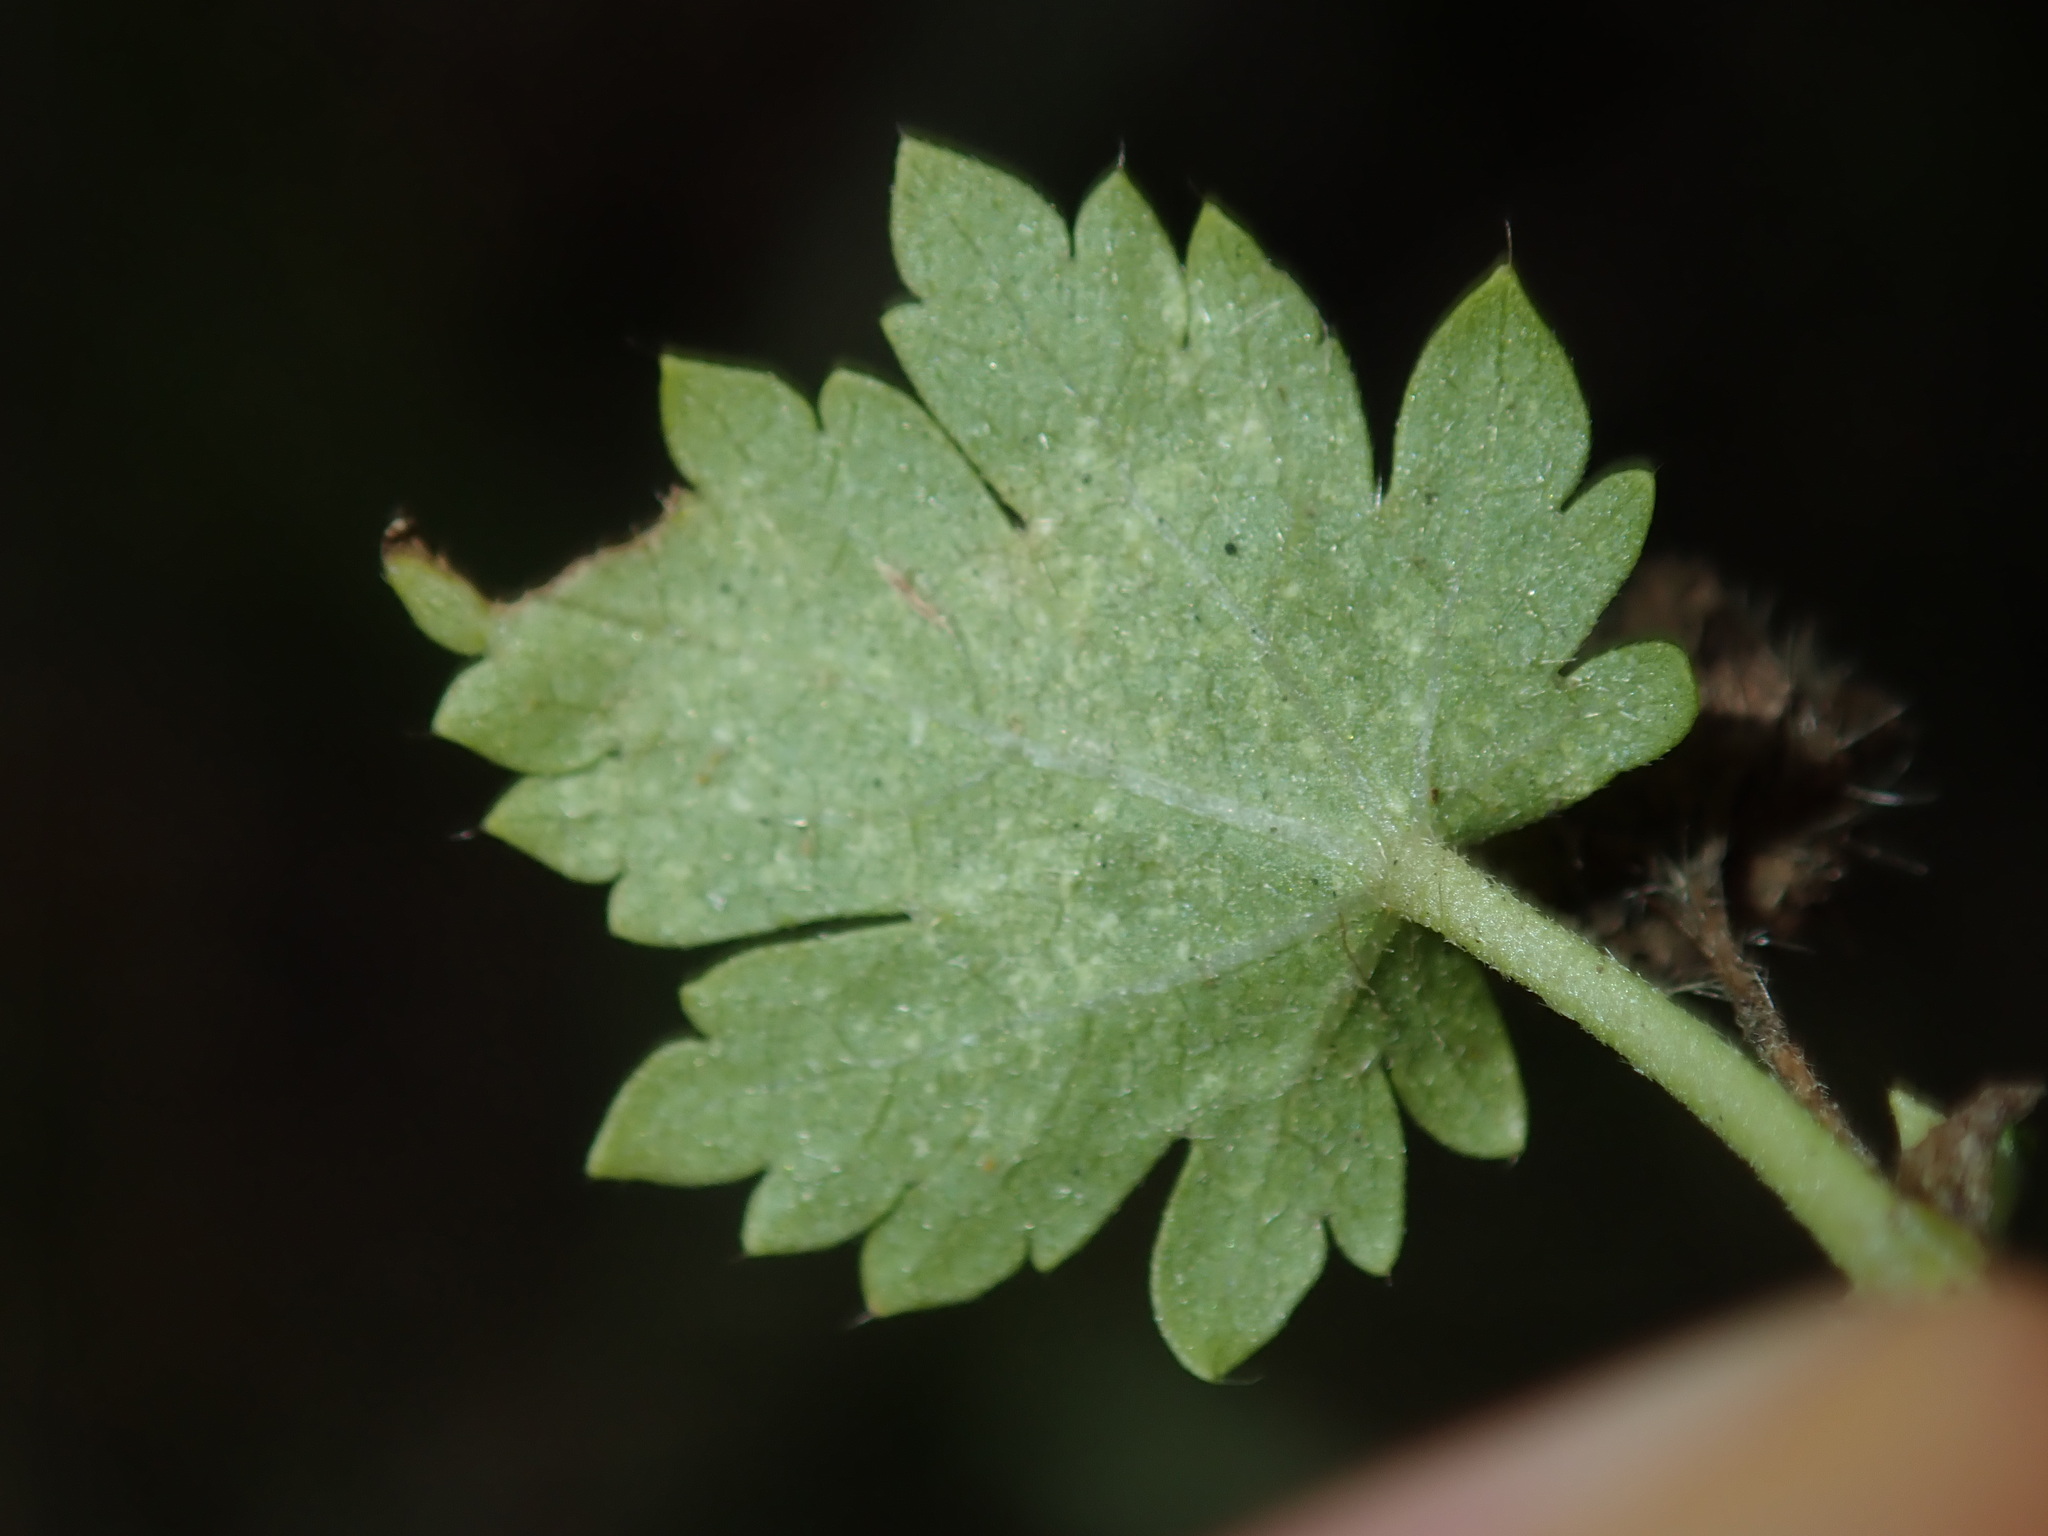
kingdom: Plantae
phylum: Tracheophyta
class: Magnoliopsida
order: Malvales
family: Malvaceae
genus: Modiola
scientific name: Modiola caroliniana
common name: Carolina bristlemallow
